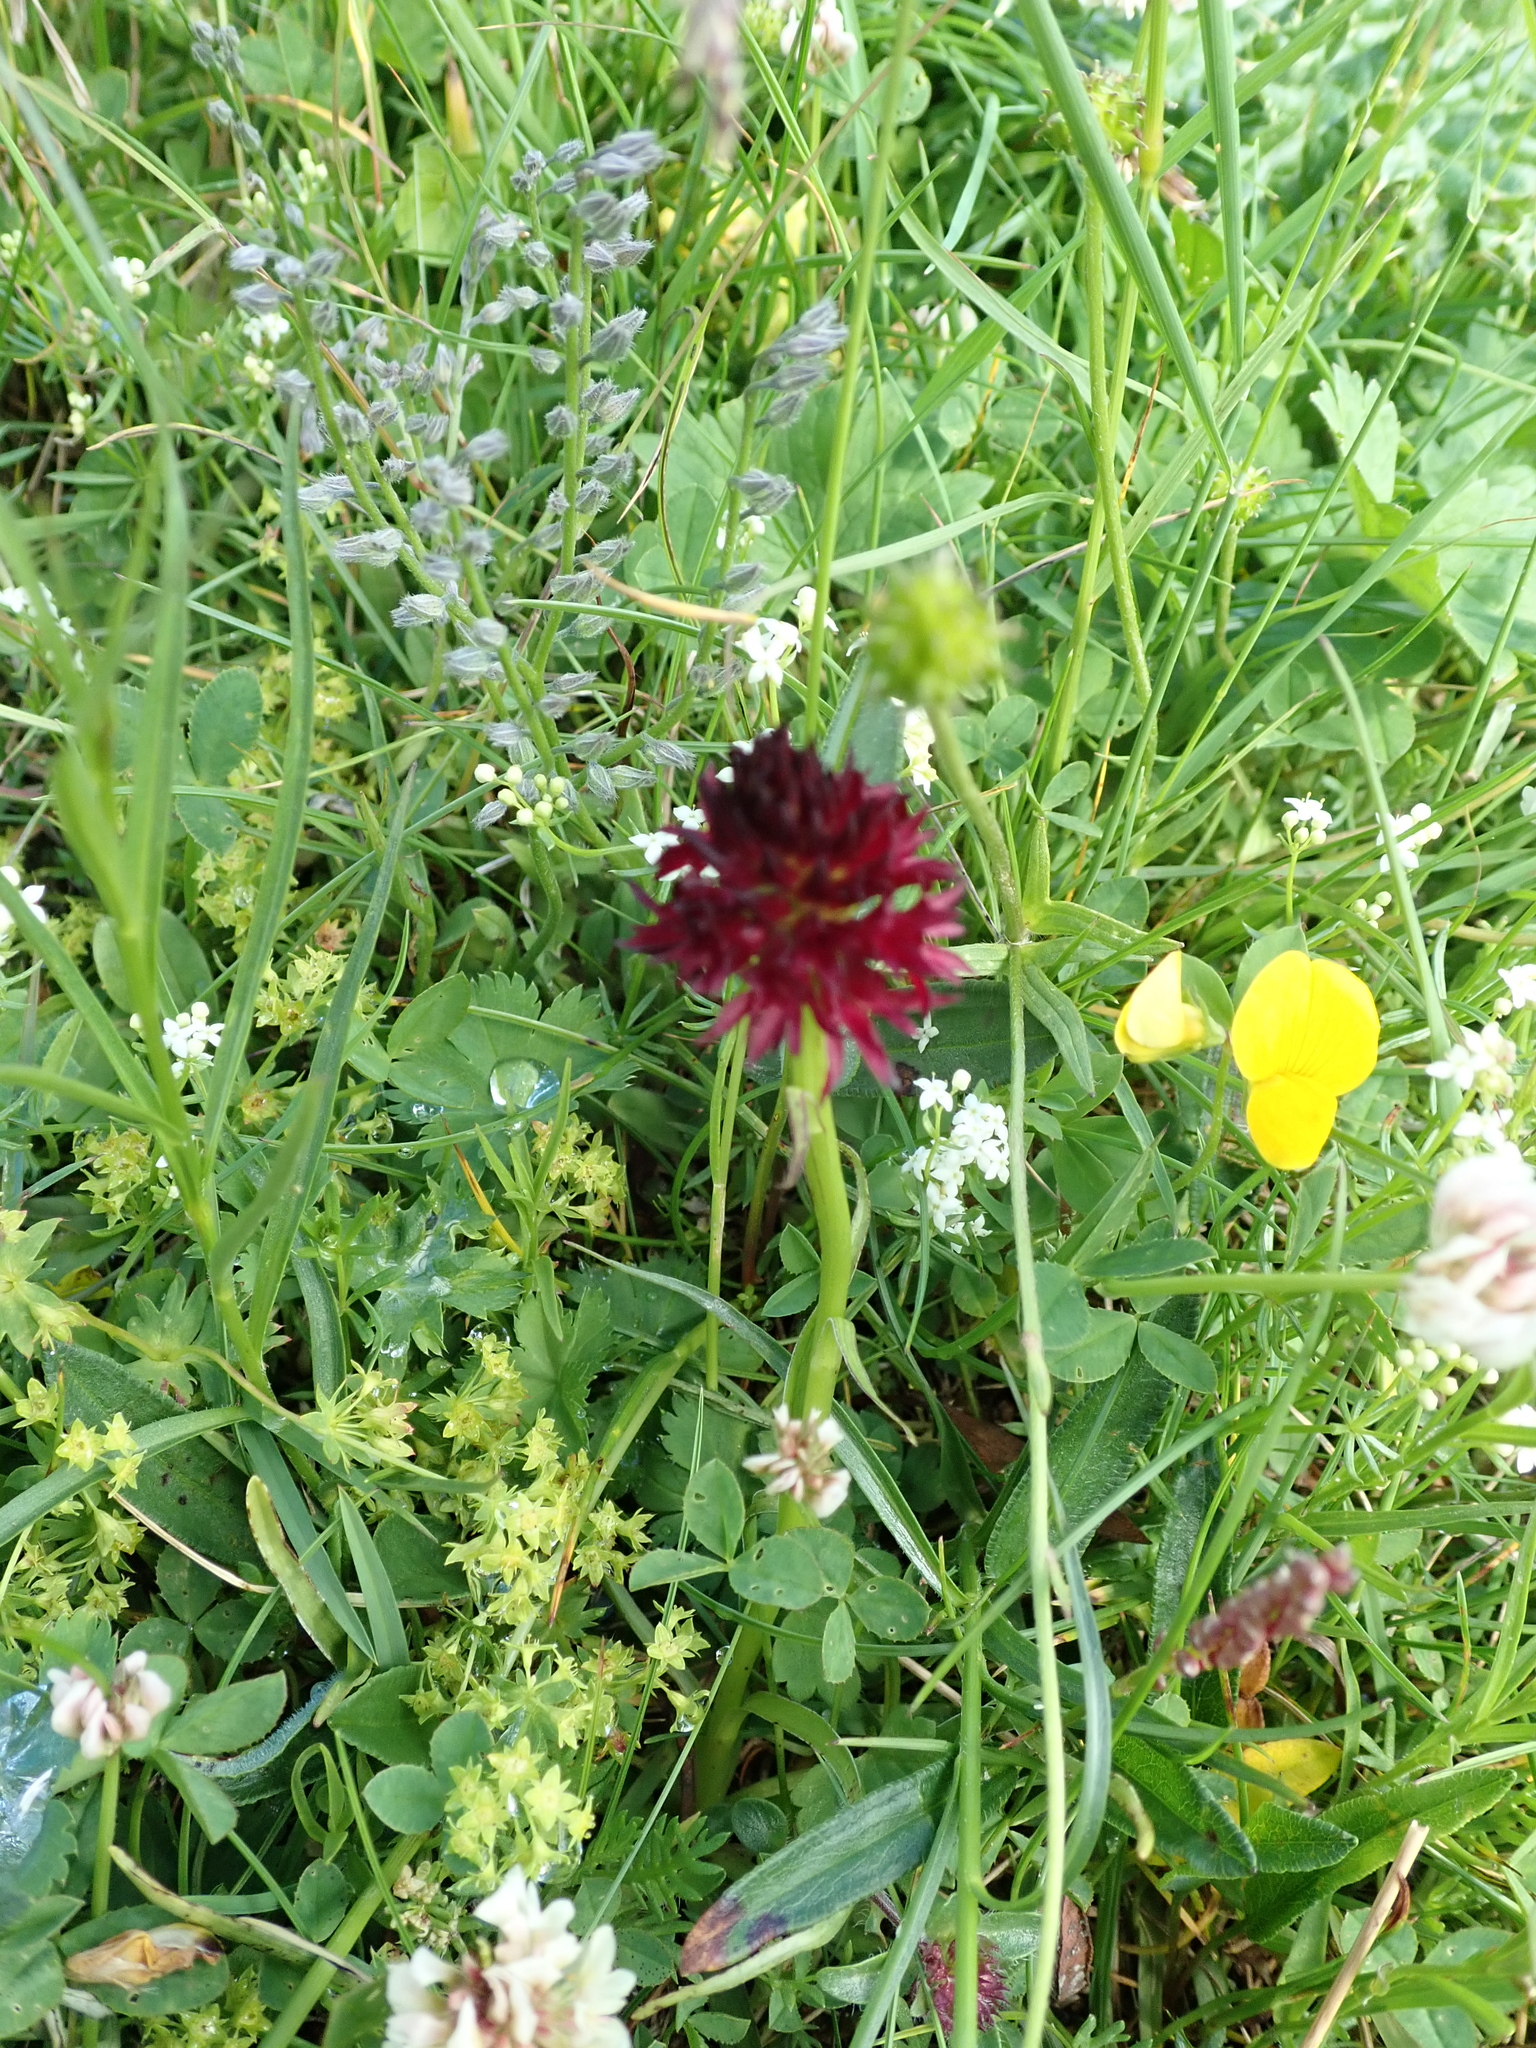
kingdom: Plantae
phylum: Tracheophyta
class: Liliopsida
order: Asparagales
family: Orchidaceae
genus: Gymnadenia
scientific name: Gymnadenia rhellicani
